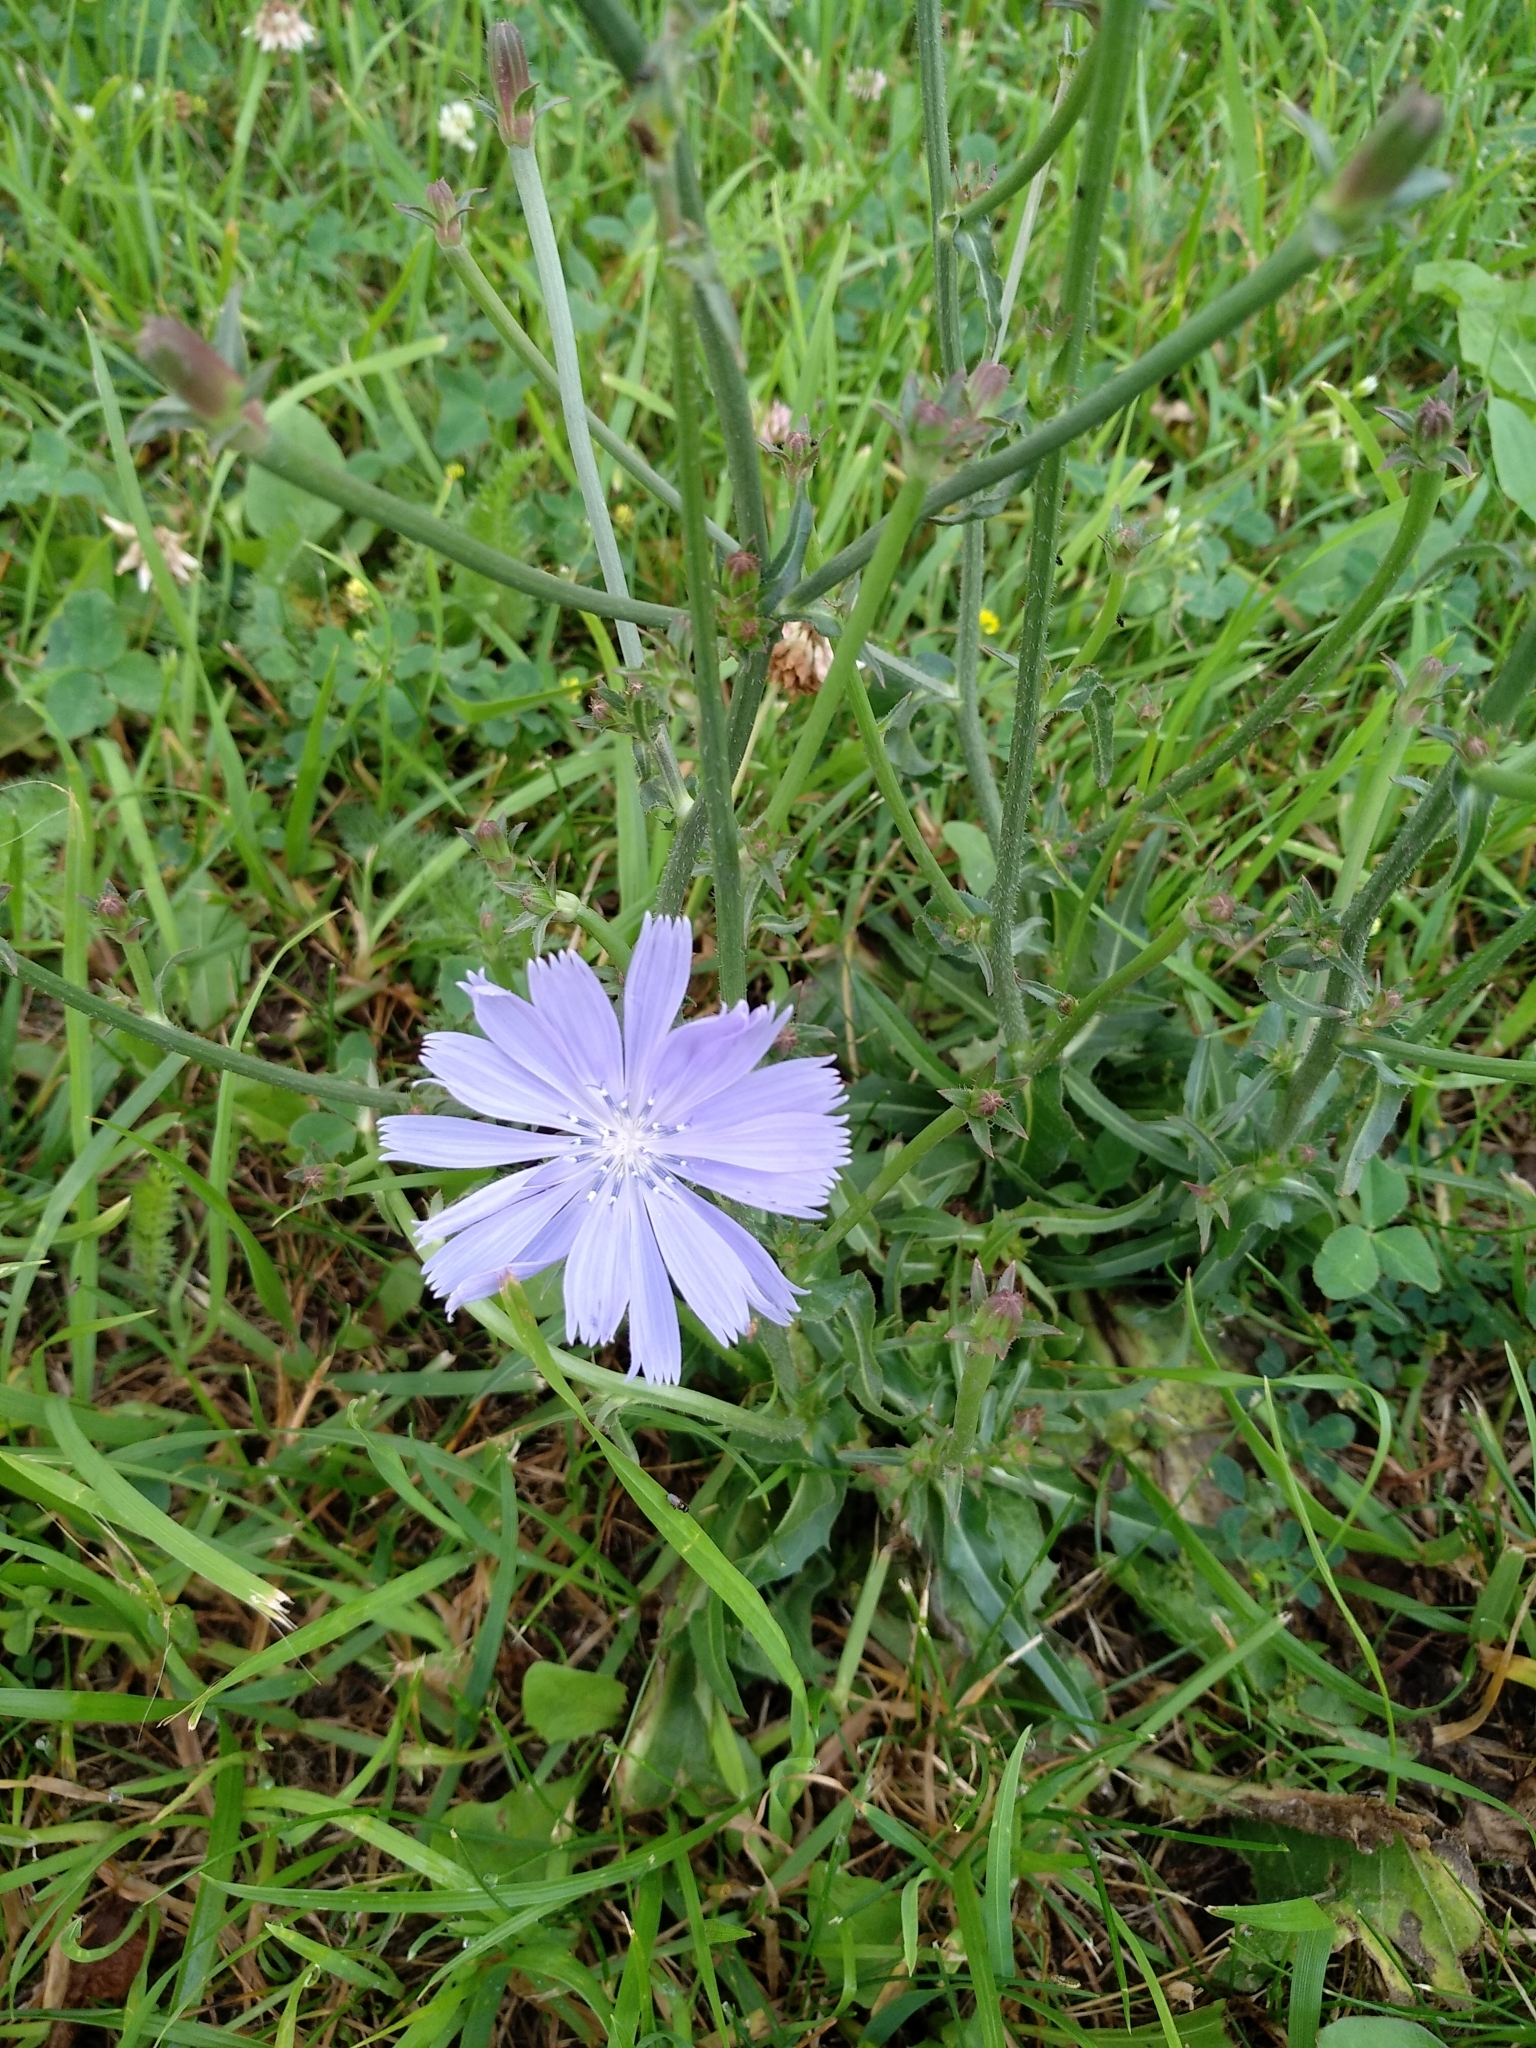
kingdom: Plantae
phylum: Tracheophyta
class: Magnoliopsida
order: Asterales
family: Asteraceae
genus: Cichorium
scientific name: Cichorium intybus
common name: Chicory
